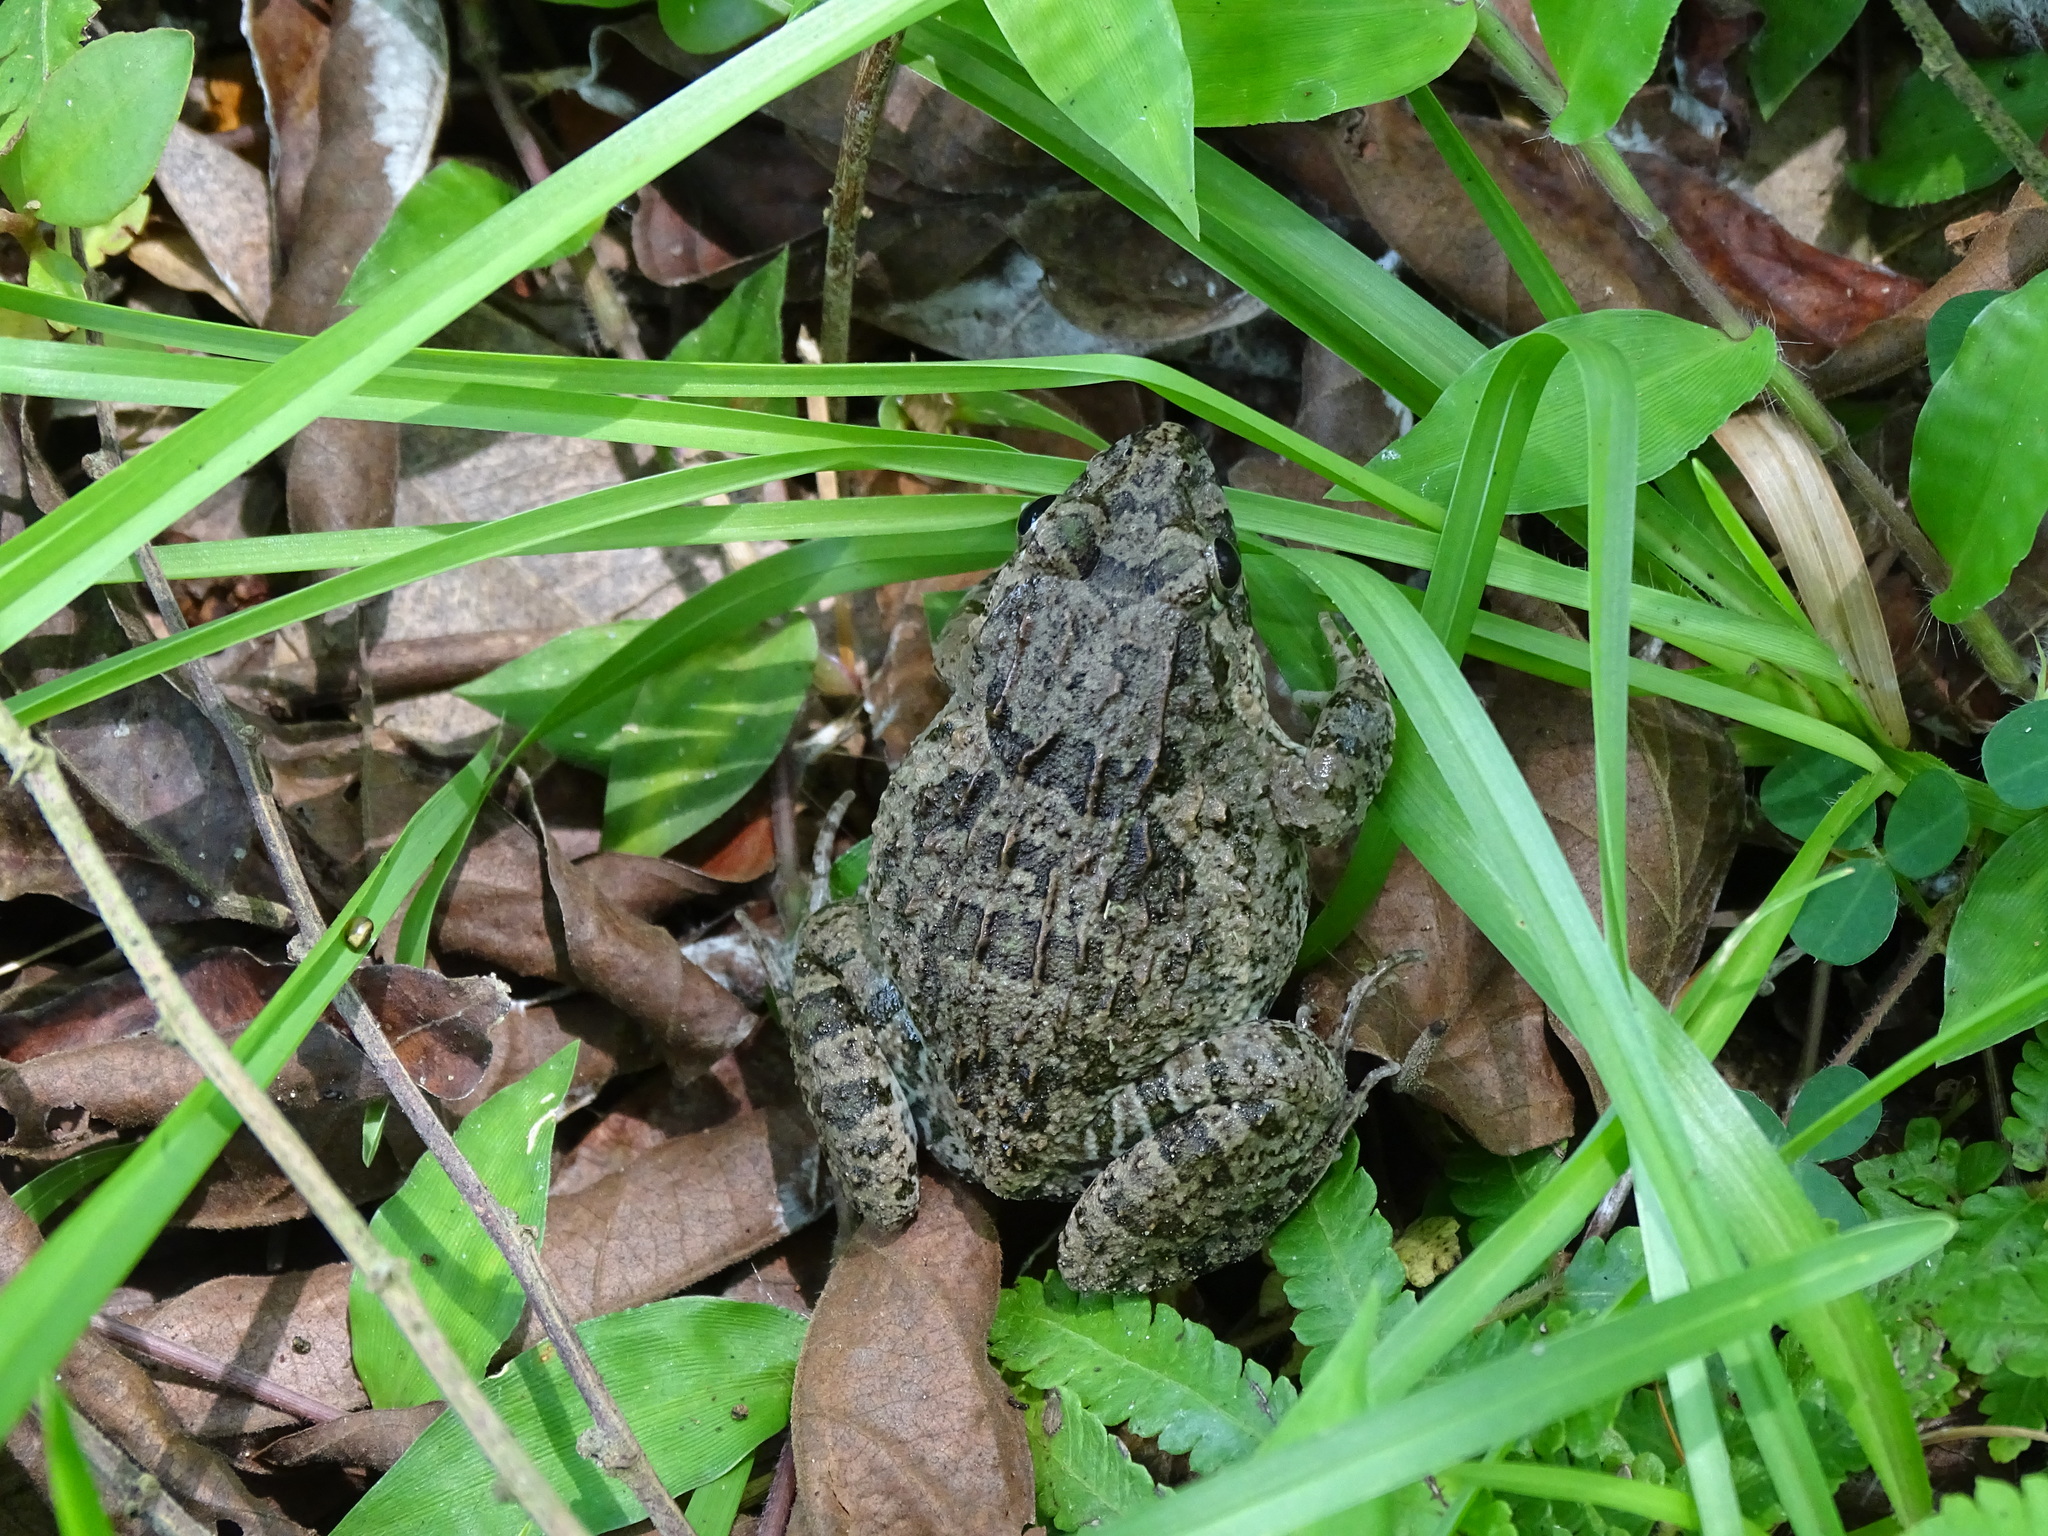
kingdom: Animalia
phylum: Chordata
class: Amphibia
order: Anura
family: Dicroglossidae
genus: Fejervarya
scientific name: Fejervarya limnocharis
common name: Asian grass frog/common pond frog/field frog/grass frog/indian rice frog
